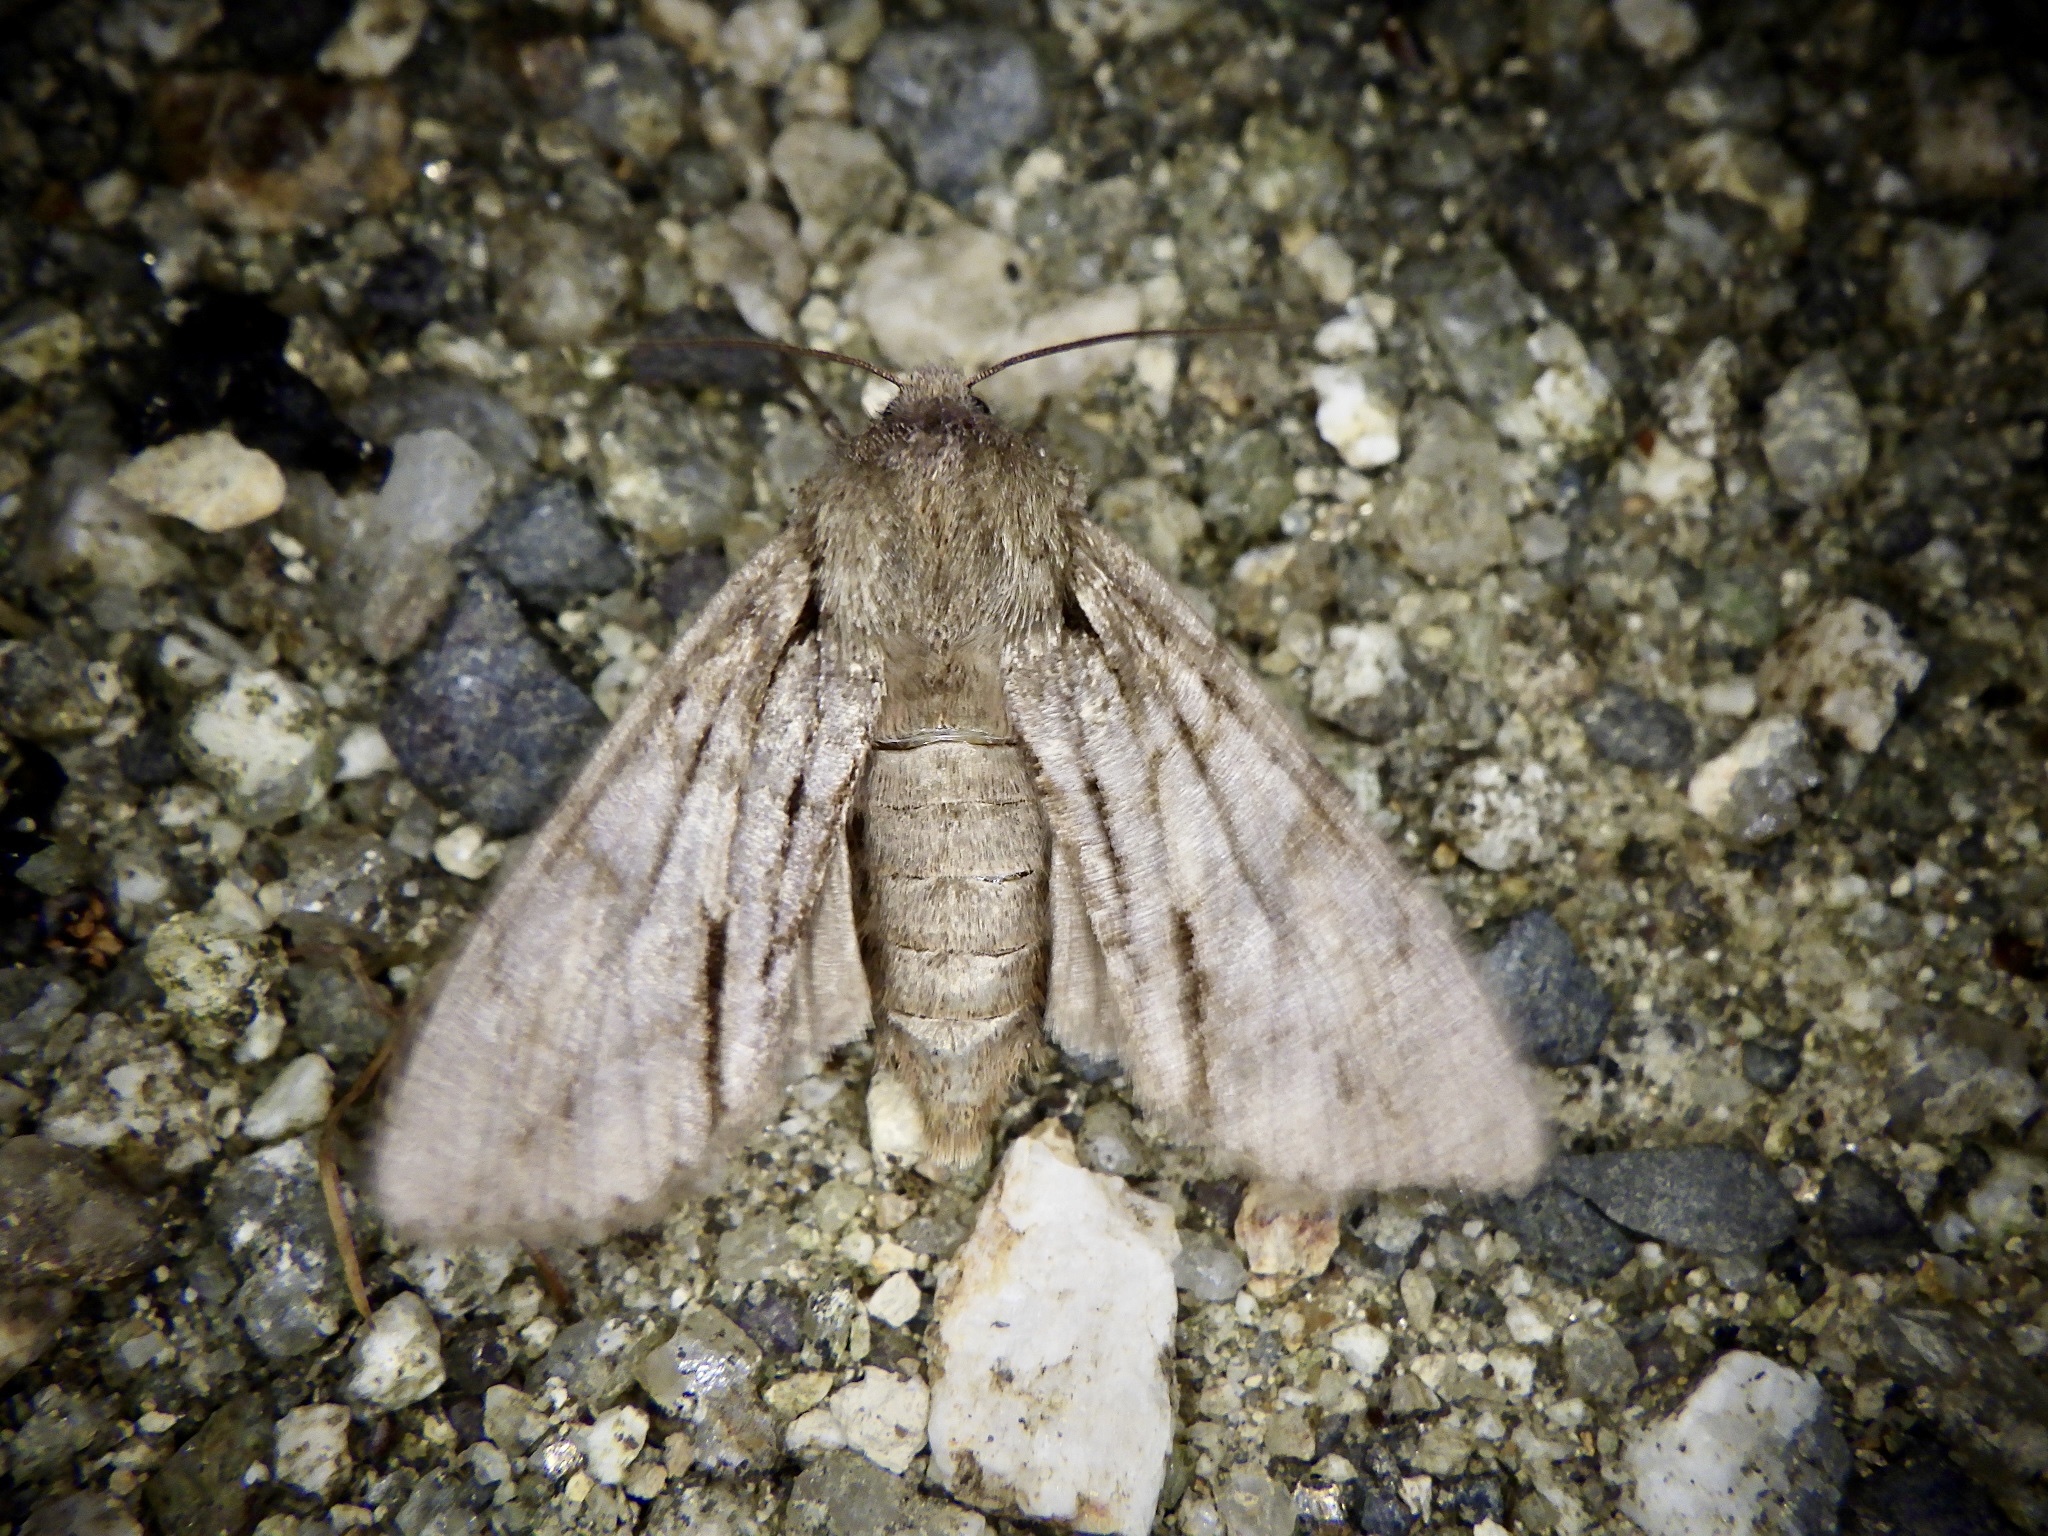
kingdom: Animalia
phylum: Arthropoda
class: Insecta
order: Lepidoptera
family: Noctuidae
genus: Egira
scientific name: Egira saxea
